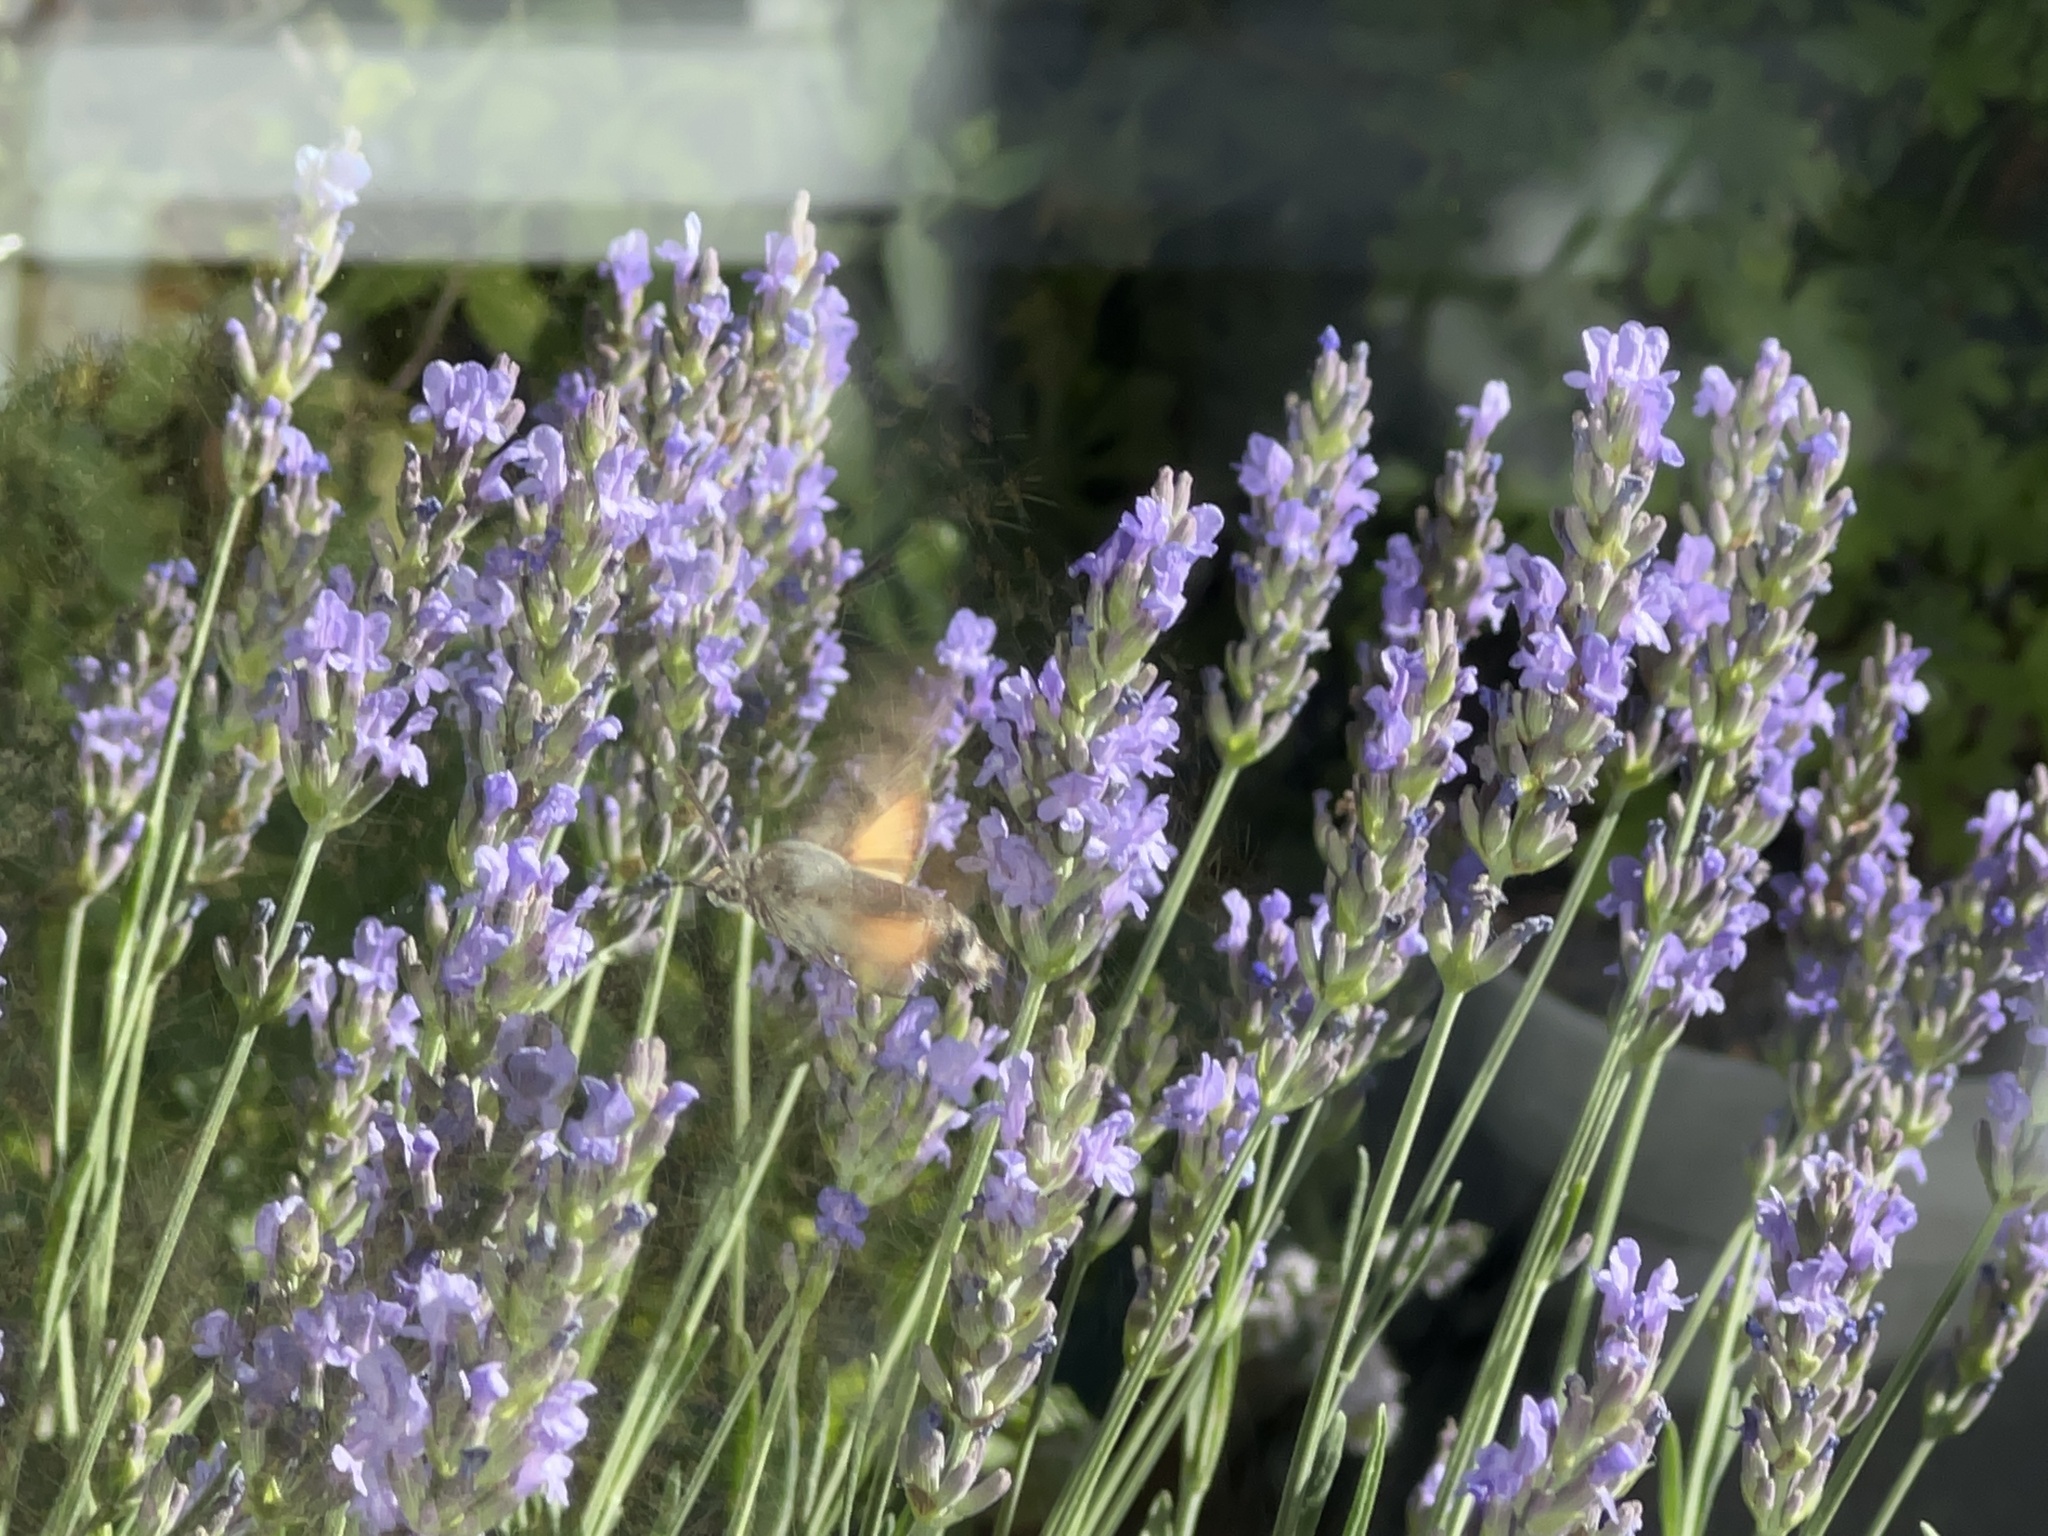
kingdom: Animalia
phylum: Arthropoda
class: Insecta
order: Lepidoptera
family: Sphingidae
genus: Macroglossum
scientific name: Macroglossum stellatarum
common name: Humming-bird hawk-moth
